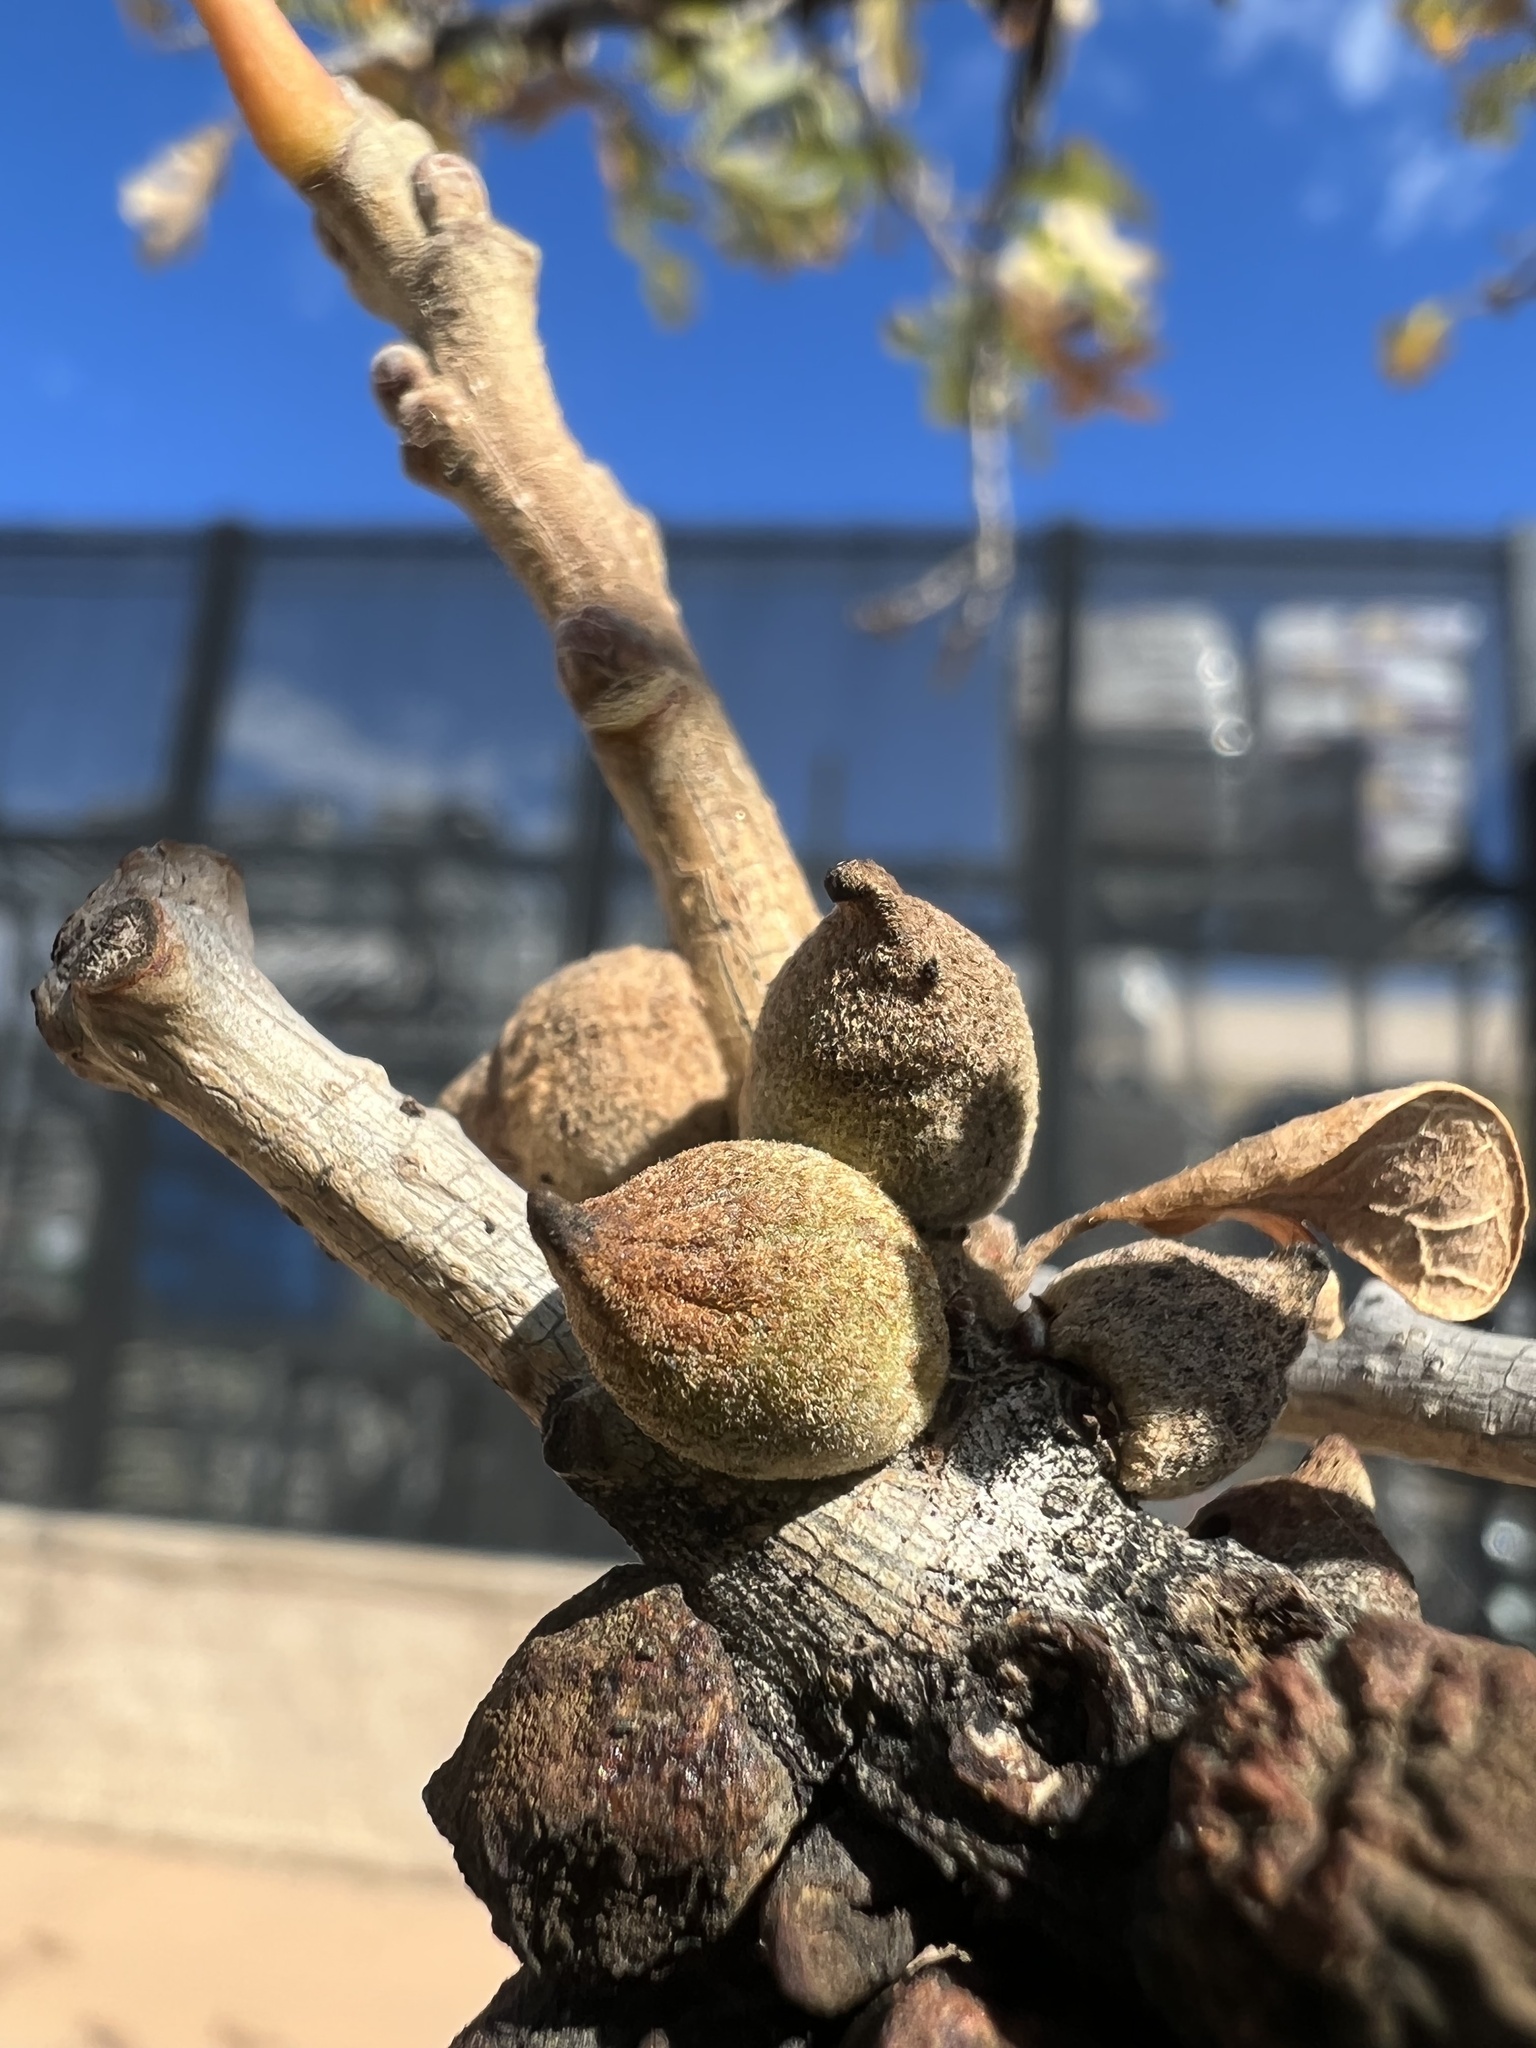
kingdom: Animalia
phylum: Arthropoda
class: Insecta
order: Hymenoptera
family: Cynipidae
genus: Disholcaspis
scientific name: Disholcaspis
